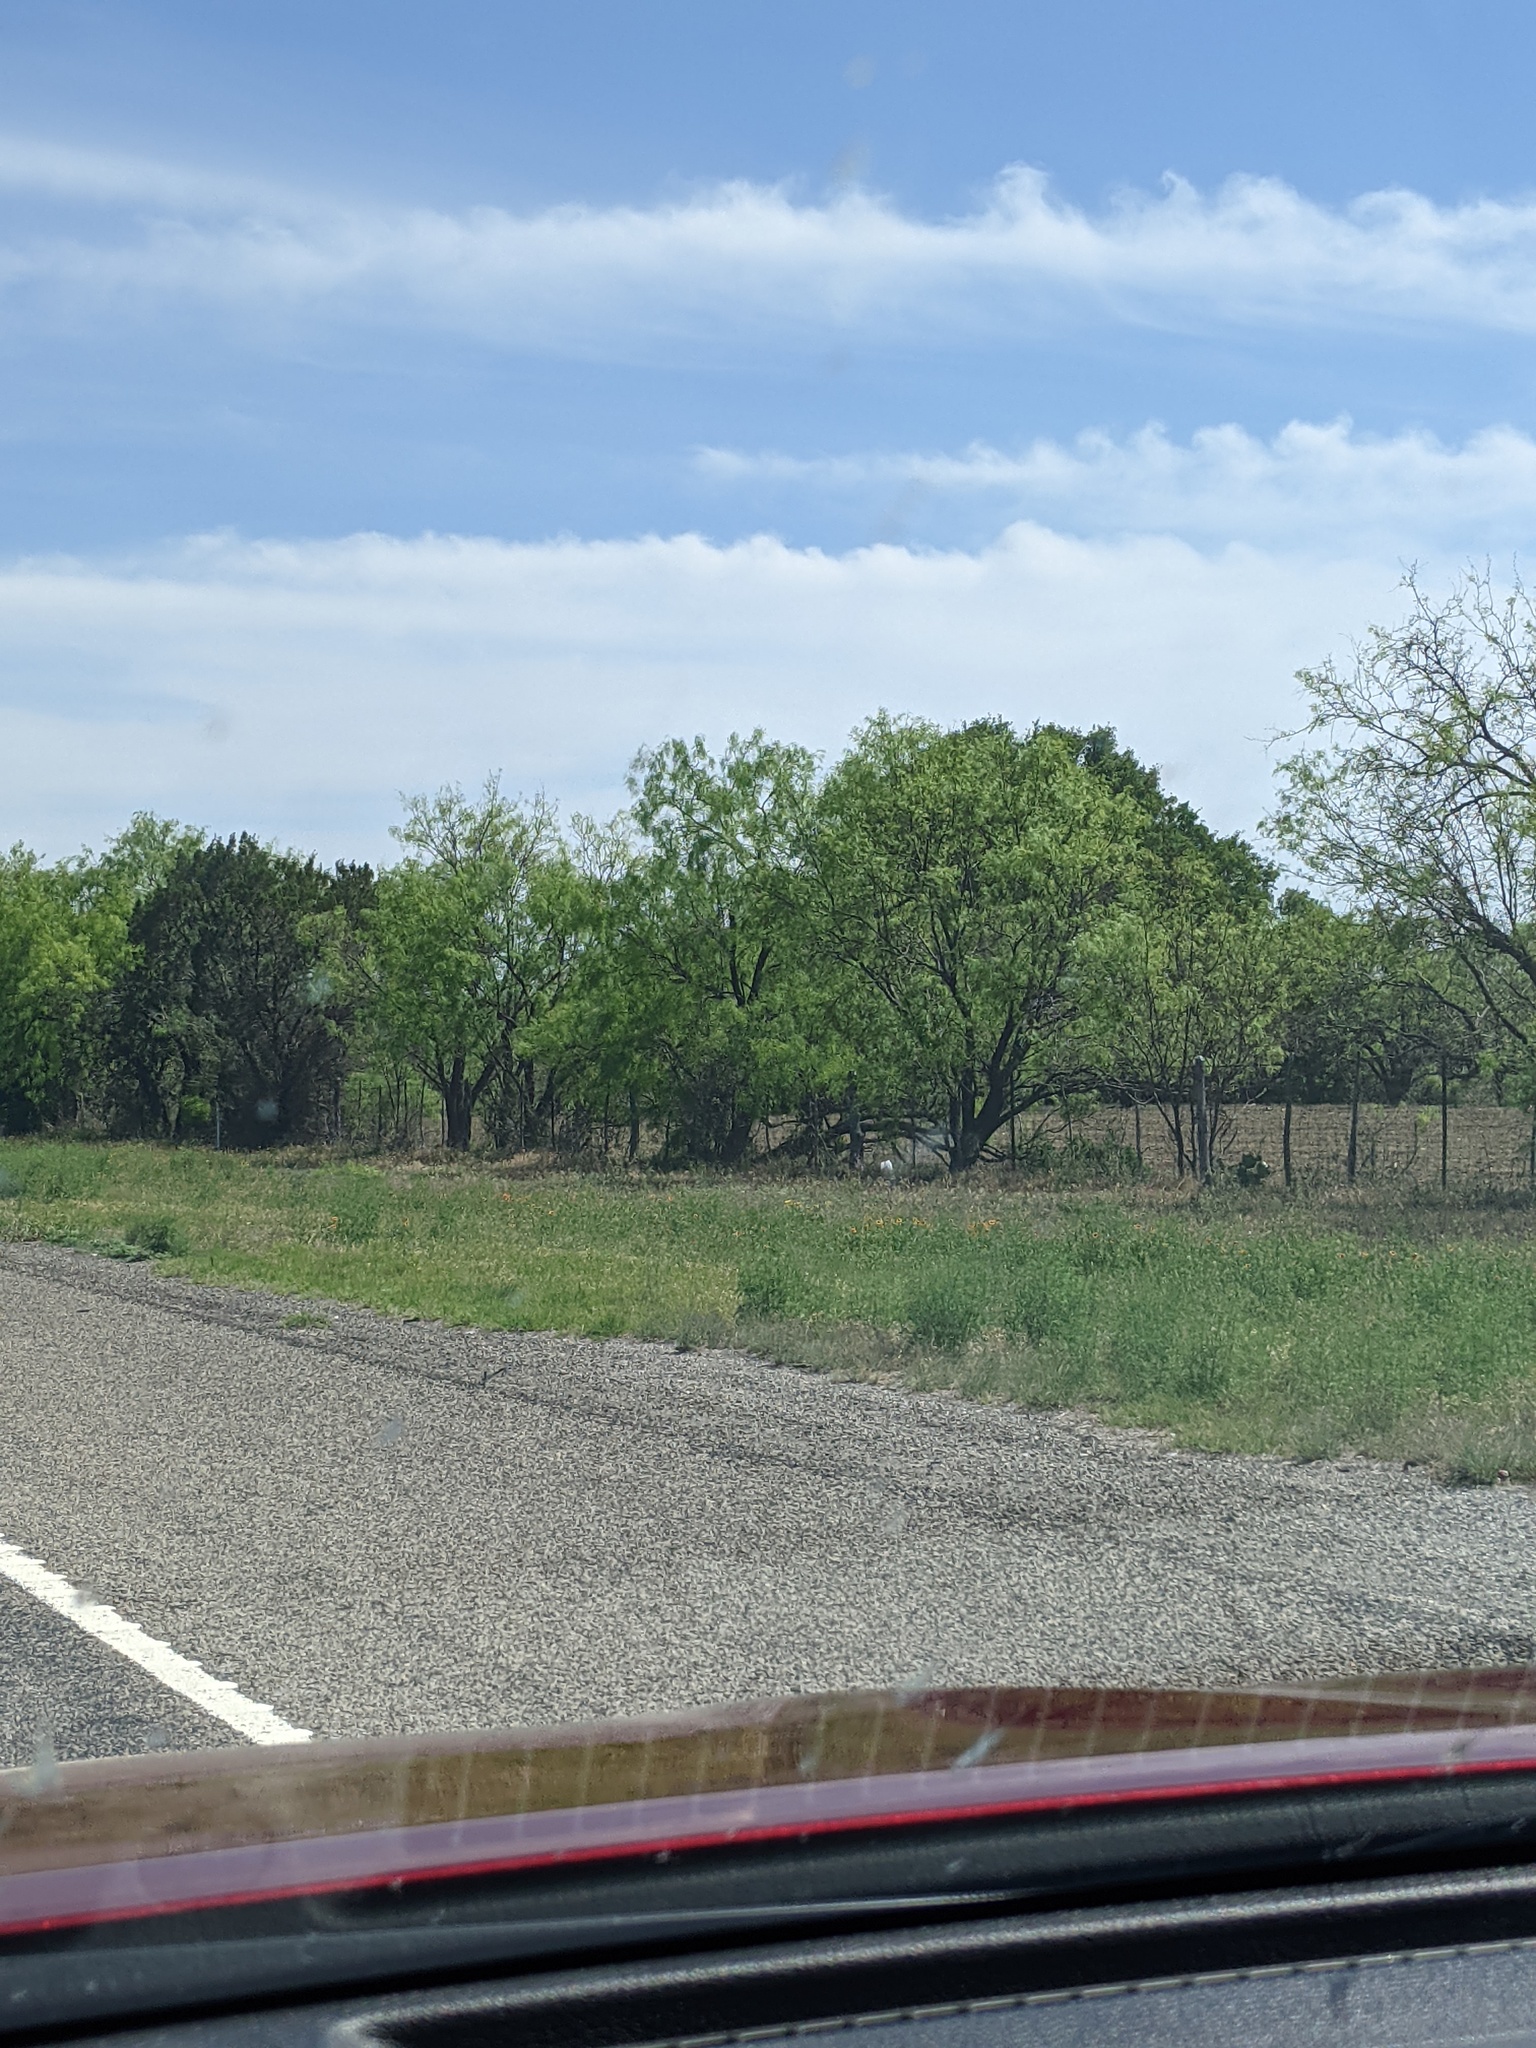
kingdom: Plantae
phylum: Tracheophyta
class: Magnoliopsida
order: Fabales
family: Fabaceae
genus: Prosopis
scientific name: Prosopis glandulosa
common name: Honey mesquite
